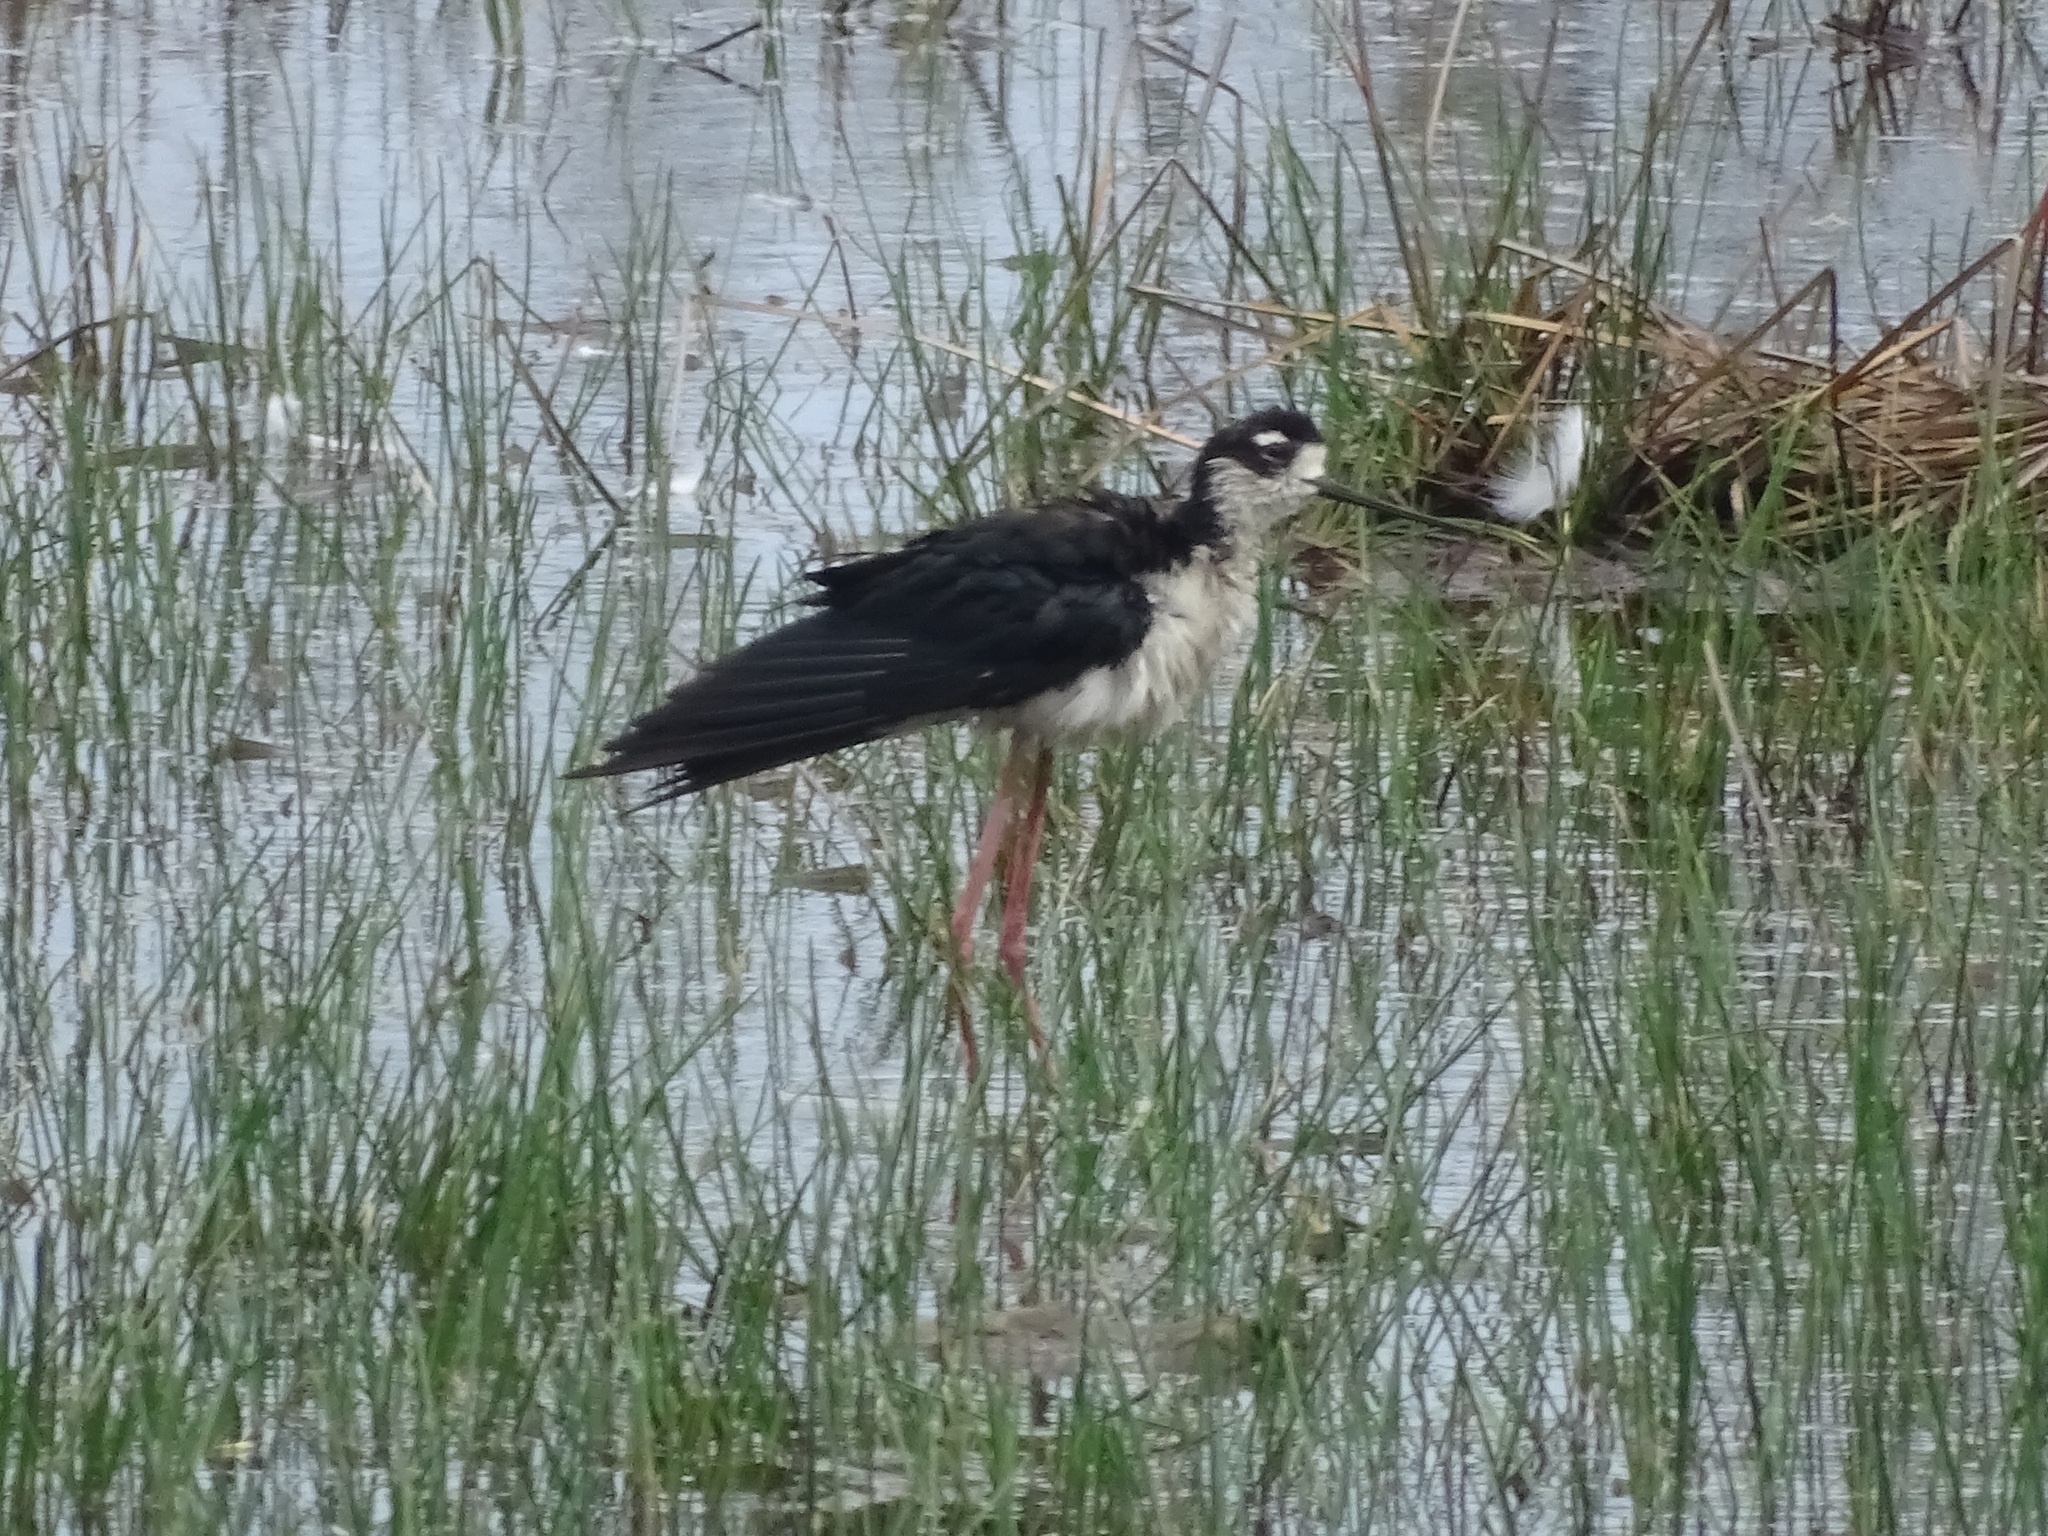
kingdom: Animalia
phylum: Chordata
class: Aves
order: Charadriiformes
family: Recurvirostridae
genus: Himantopus
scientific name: Himantopus mexicanus
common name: Black-necked stilt
